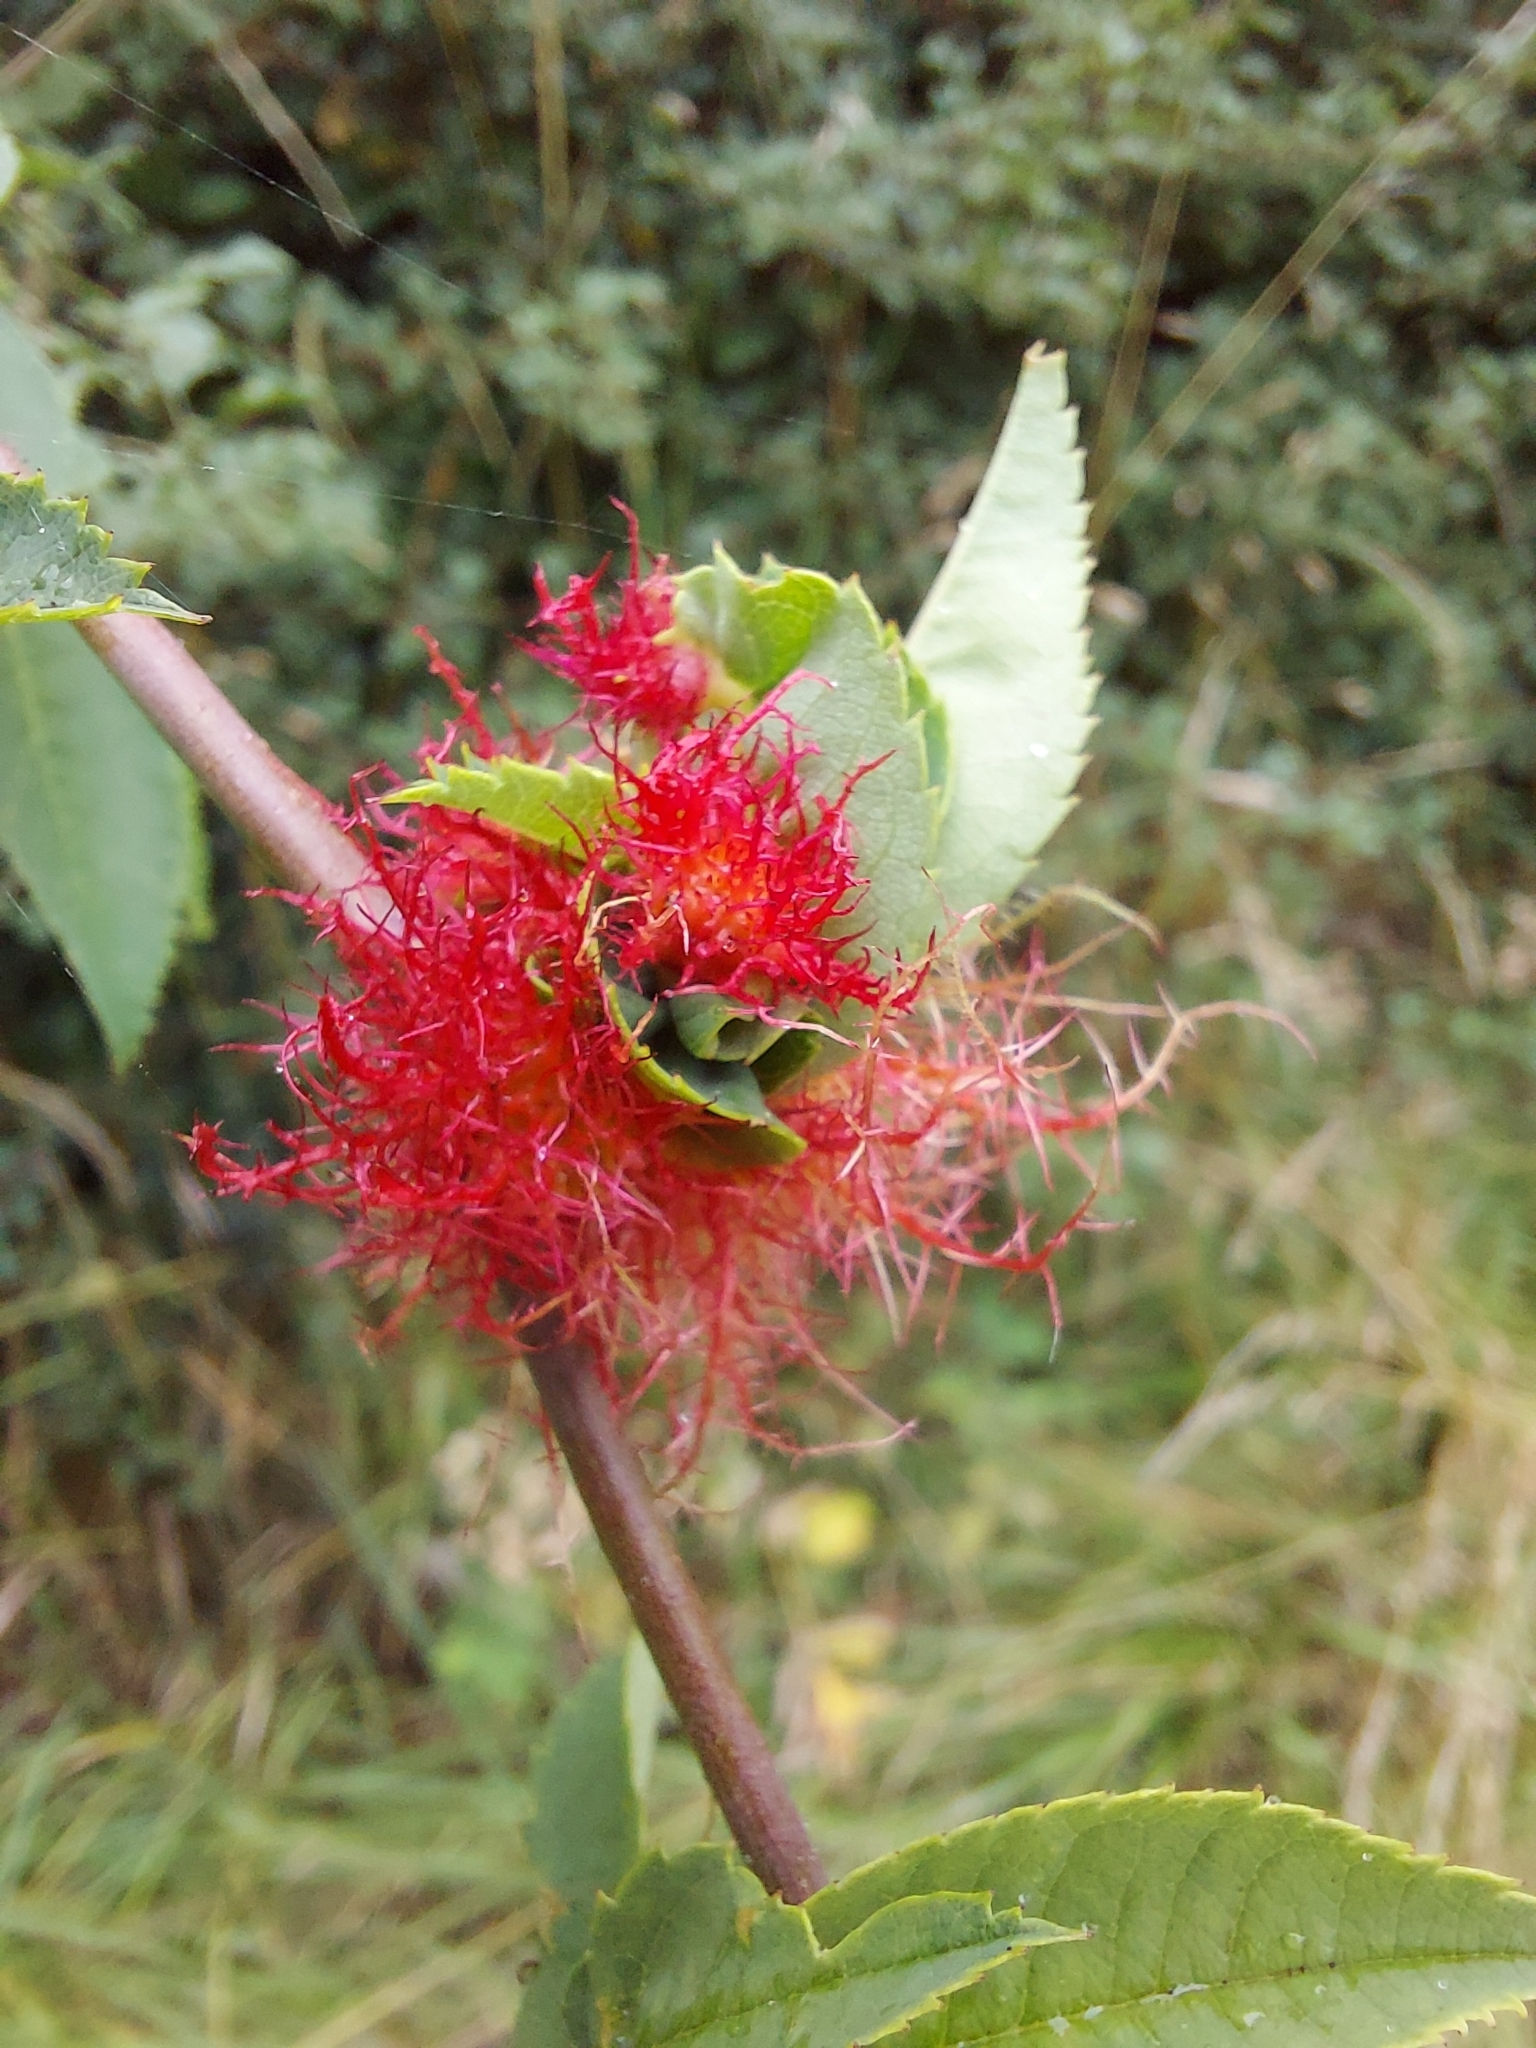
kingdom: Animalia
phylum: Arthropoda
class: Insecta
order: Hymenoptera
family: Cynipidae
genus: Diplolepis
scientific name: Diplolepis rosae
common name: Bedeguar gall
